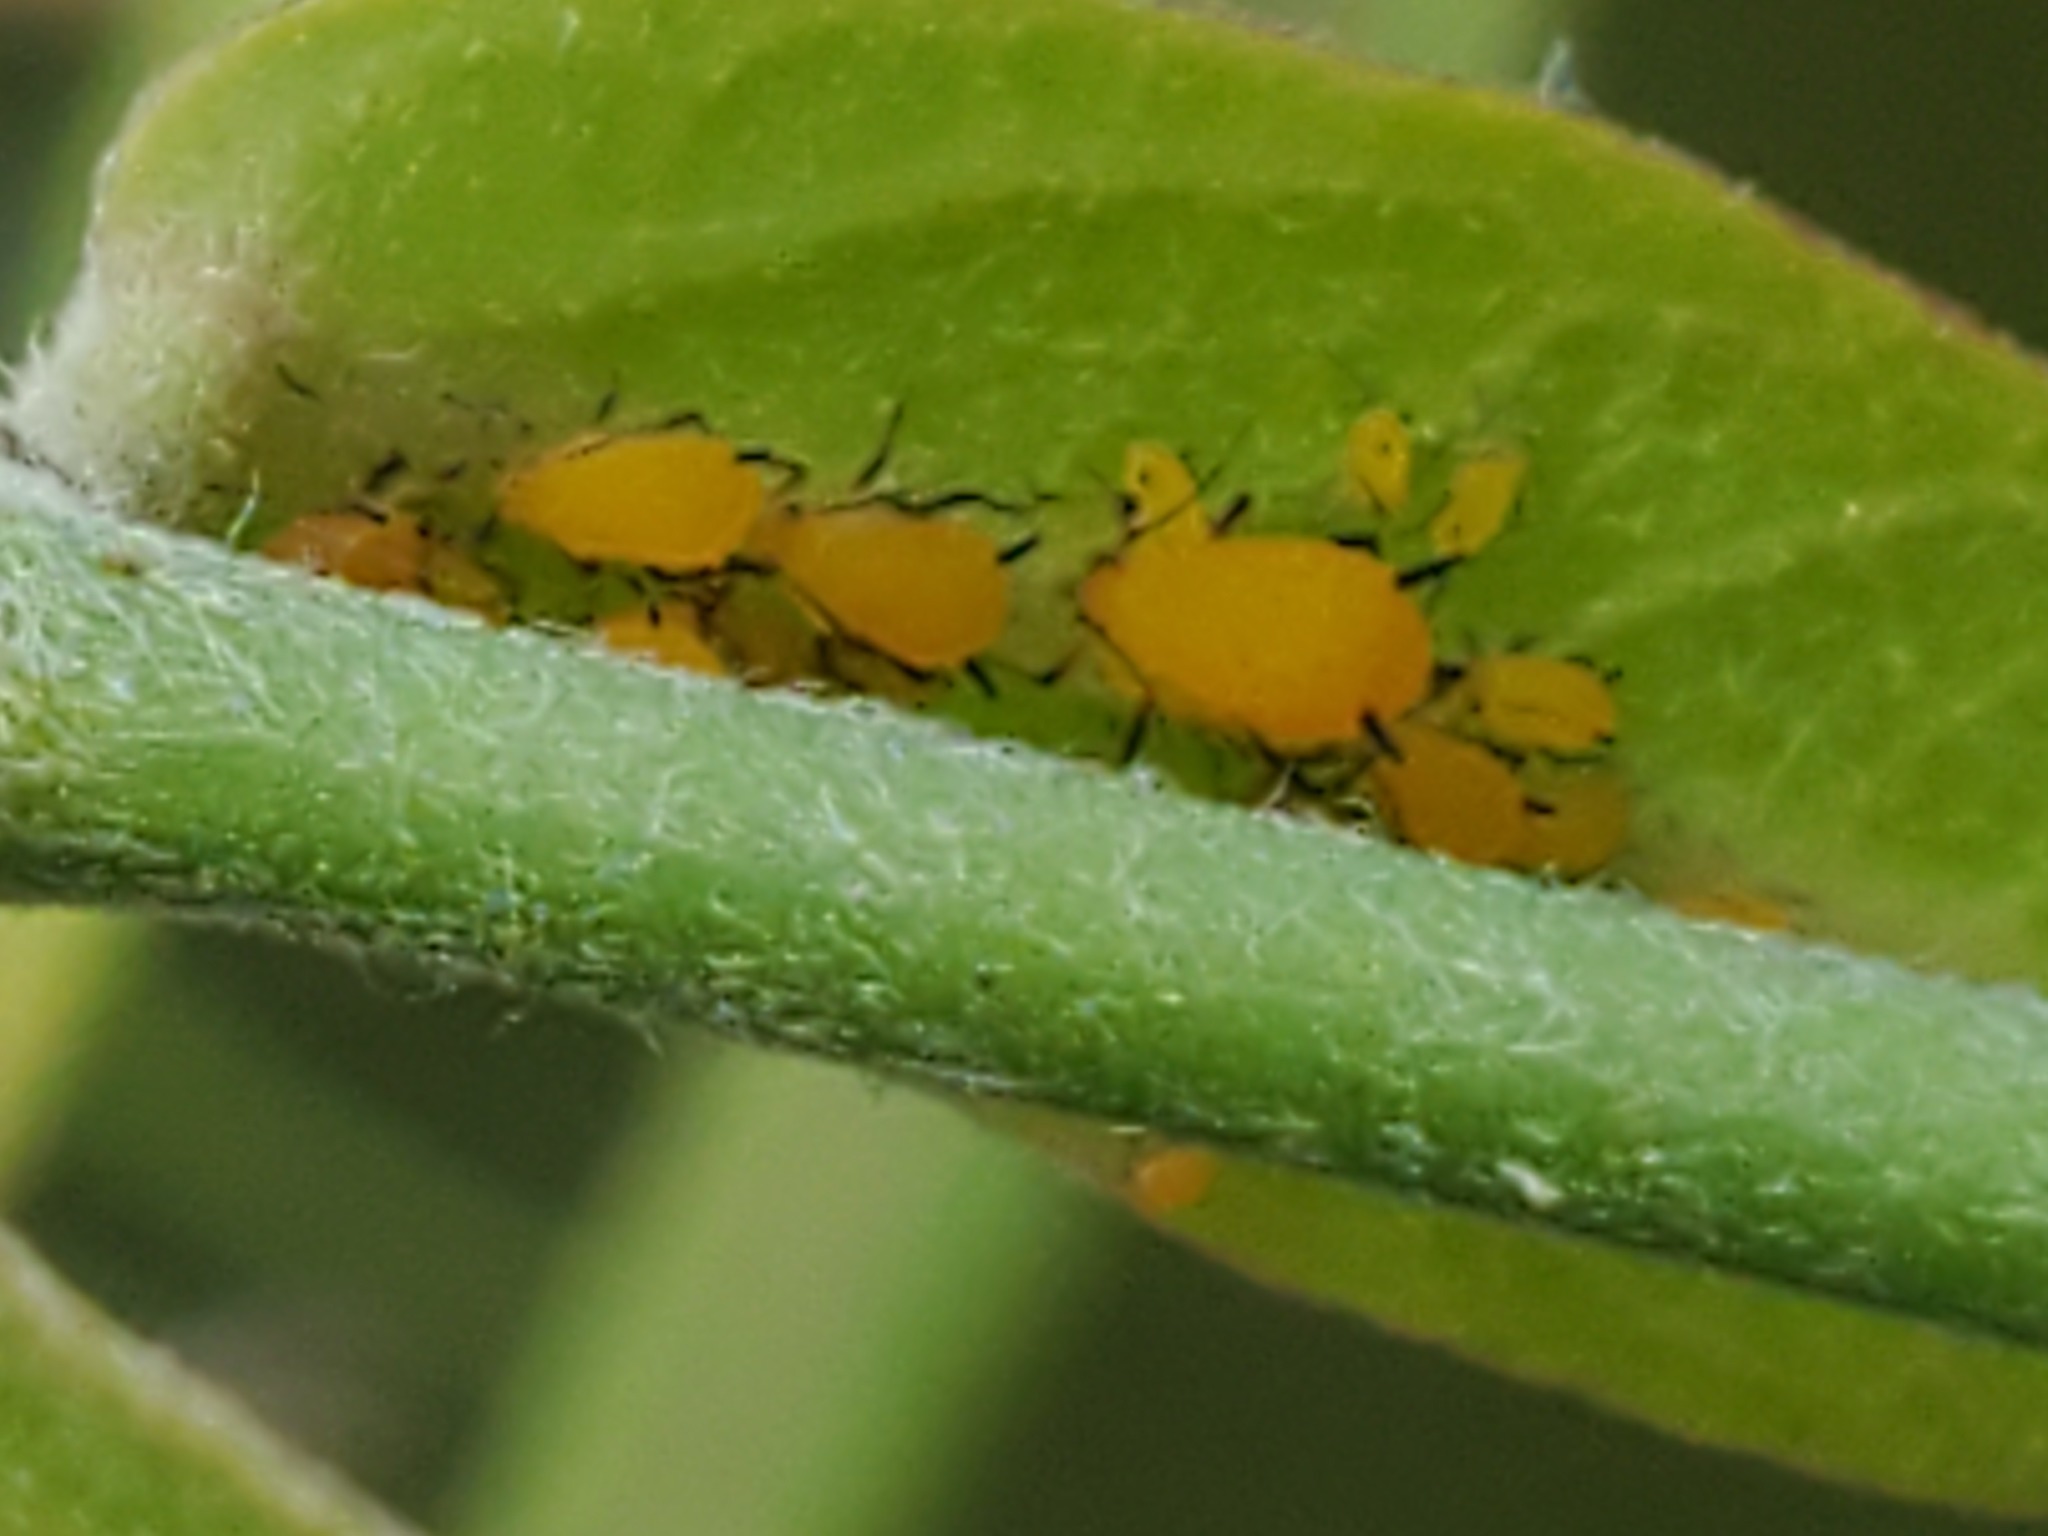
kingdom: Animalia
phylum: Arthropoda
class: Insecta
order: Hemiptera
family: Aphididae
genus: Aphis
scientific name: Aphis nerii
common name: Oleander aphid
